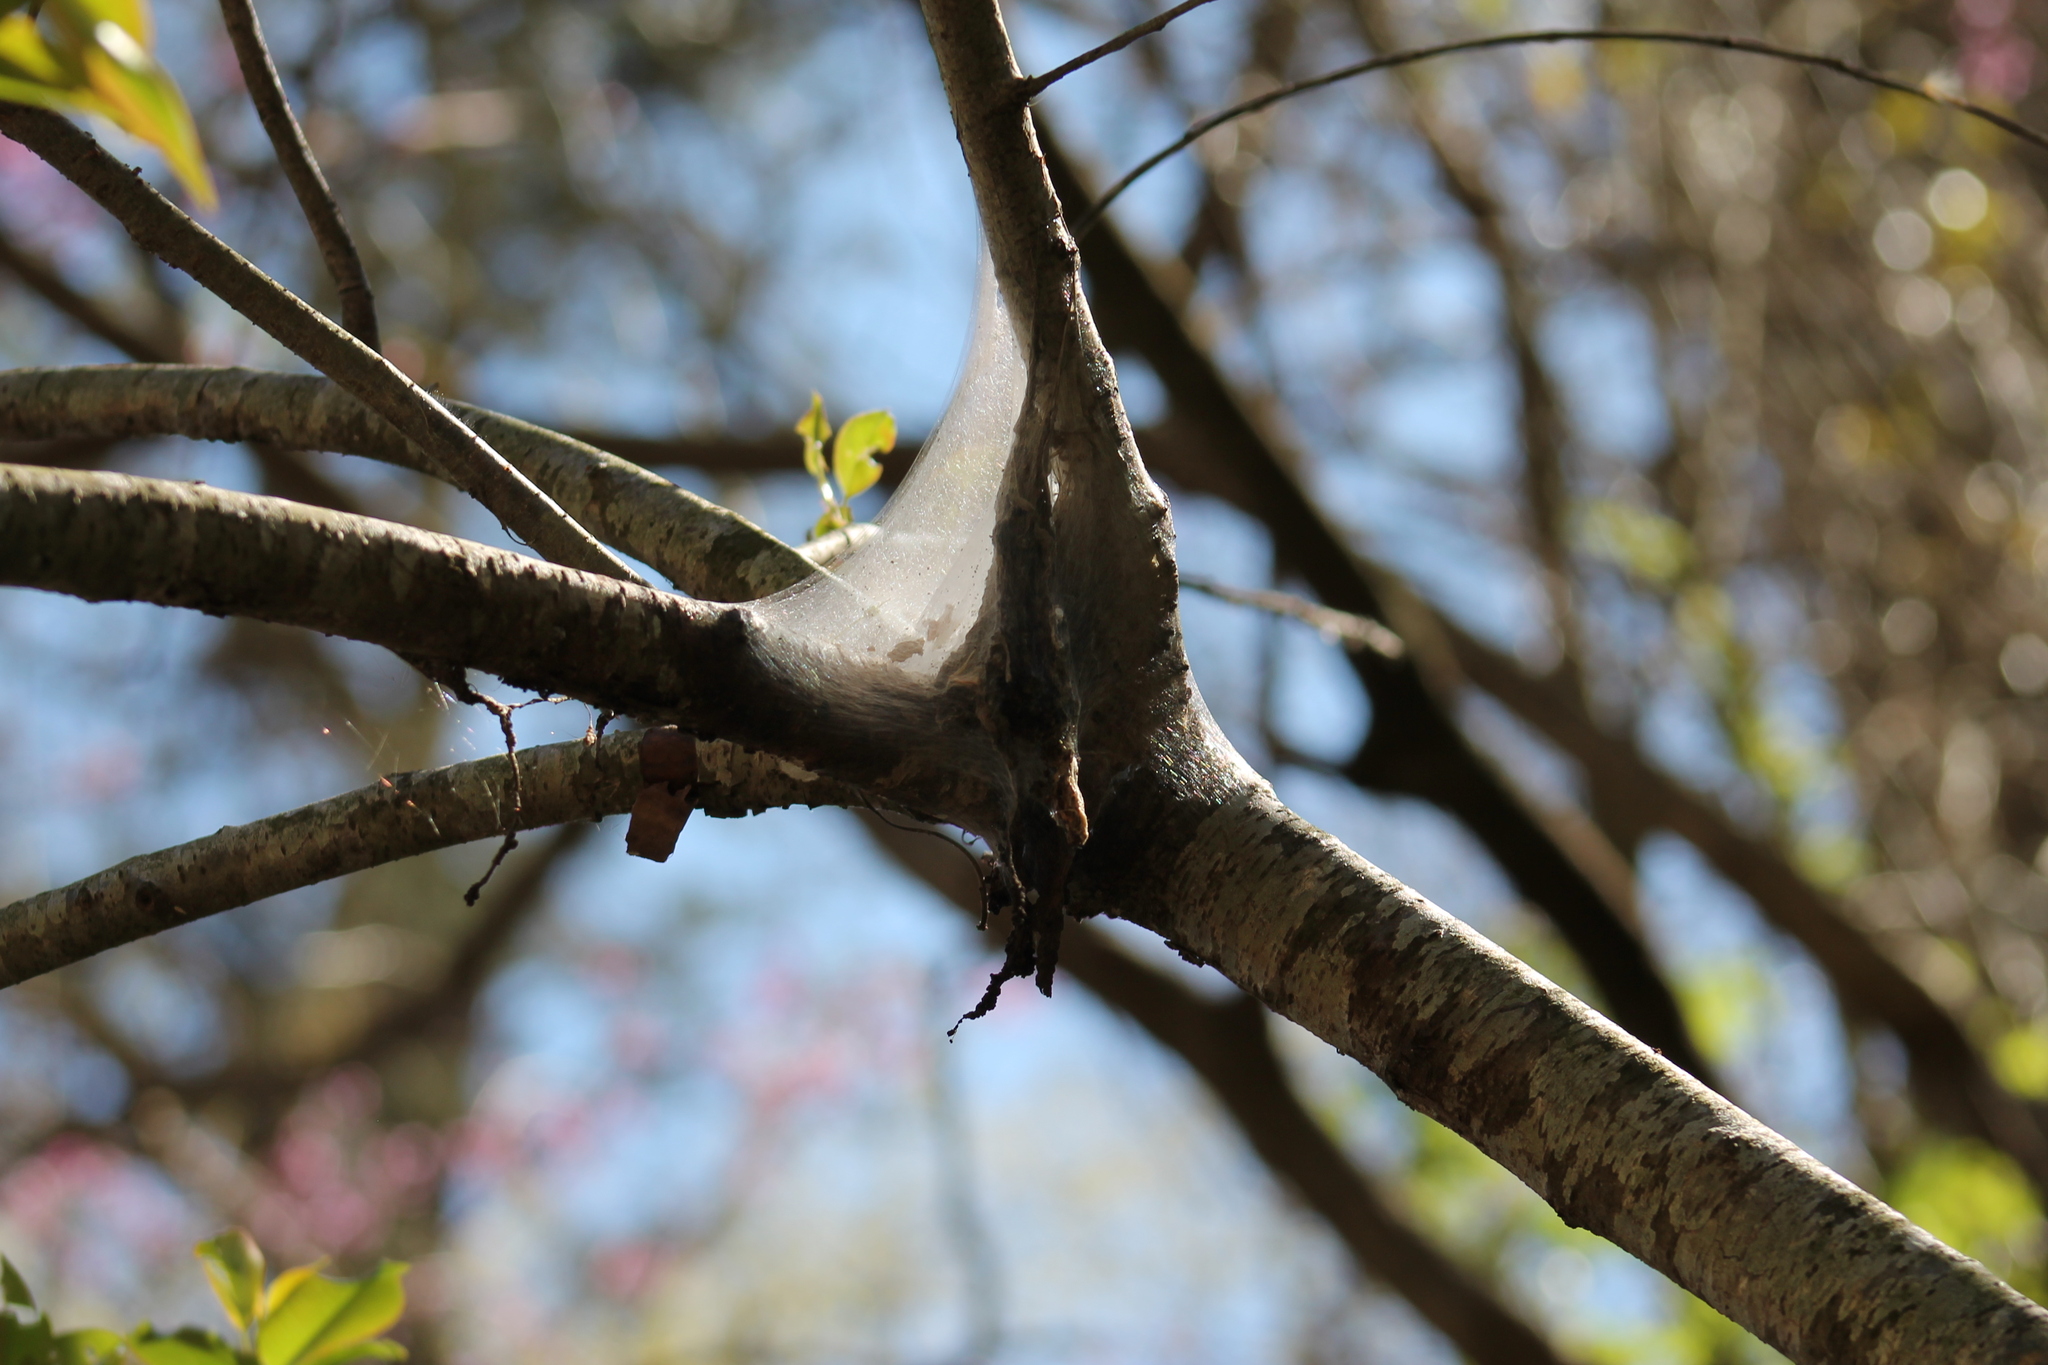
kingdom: Animalia
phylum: Arthropoda
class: Insecta
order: Lepidoptera
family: Lasiocampidae
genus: Malacosoma
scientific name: Malacosoma americana
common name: Eastern tent caterpillar moth
